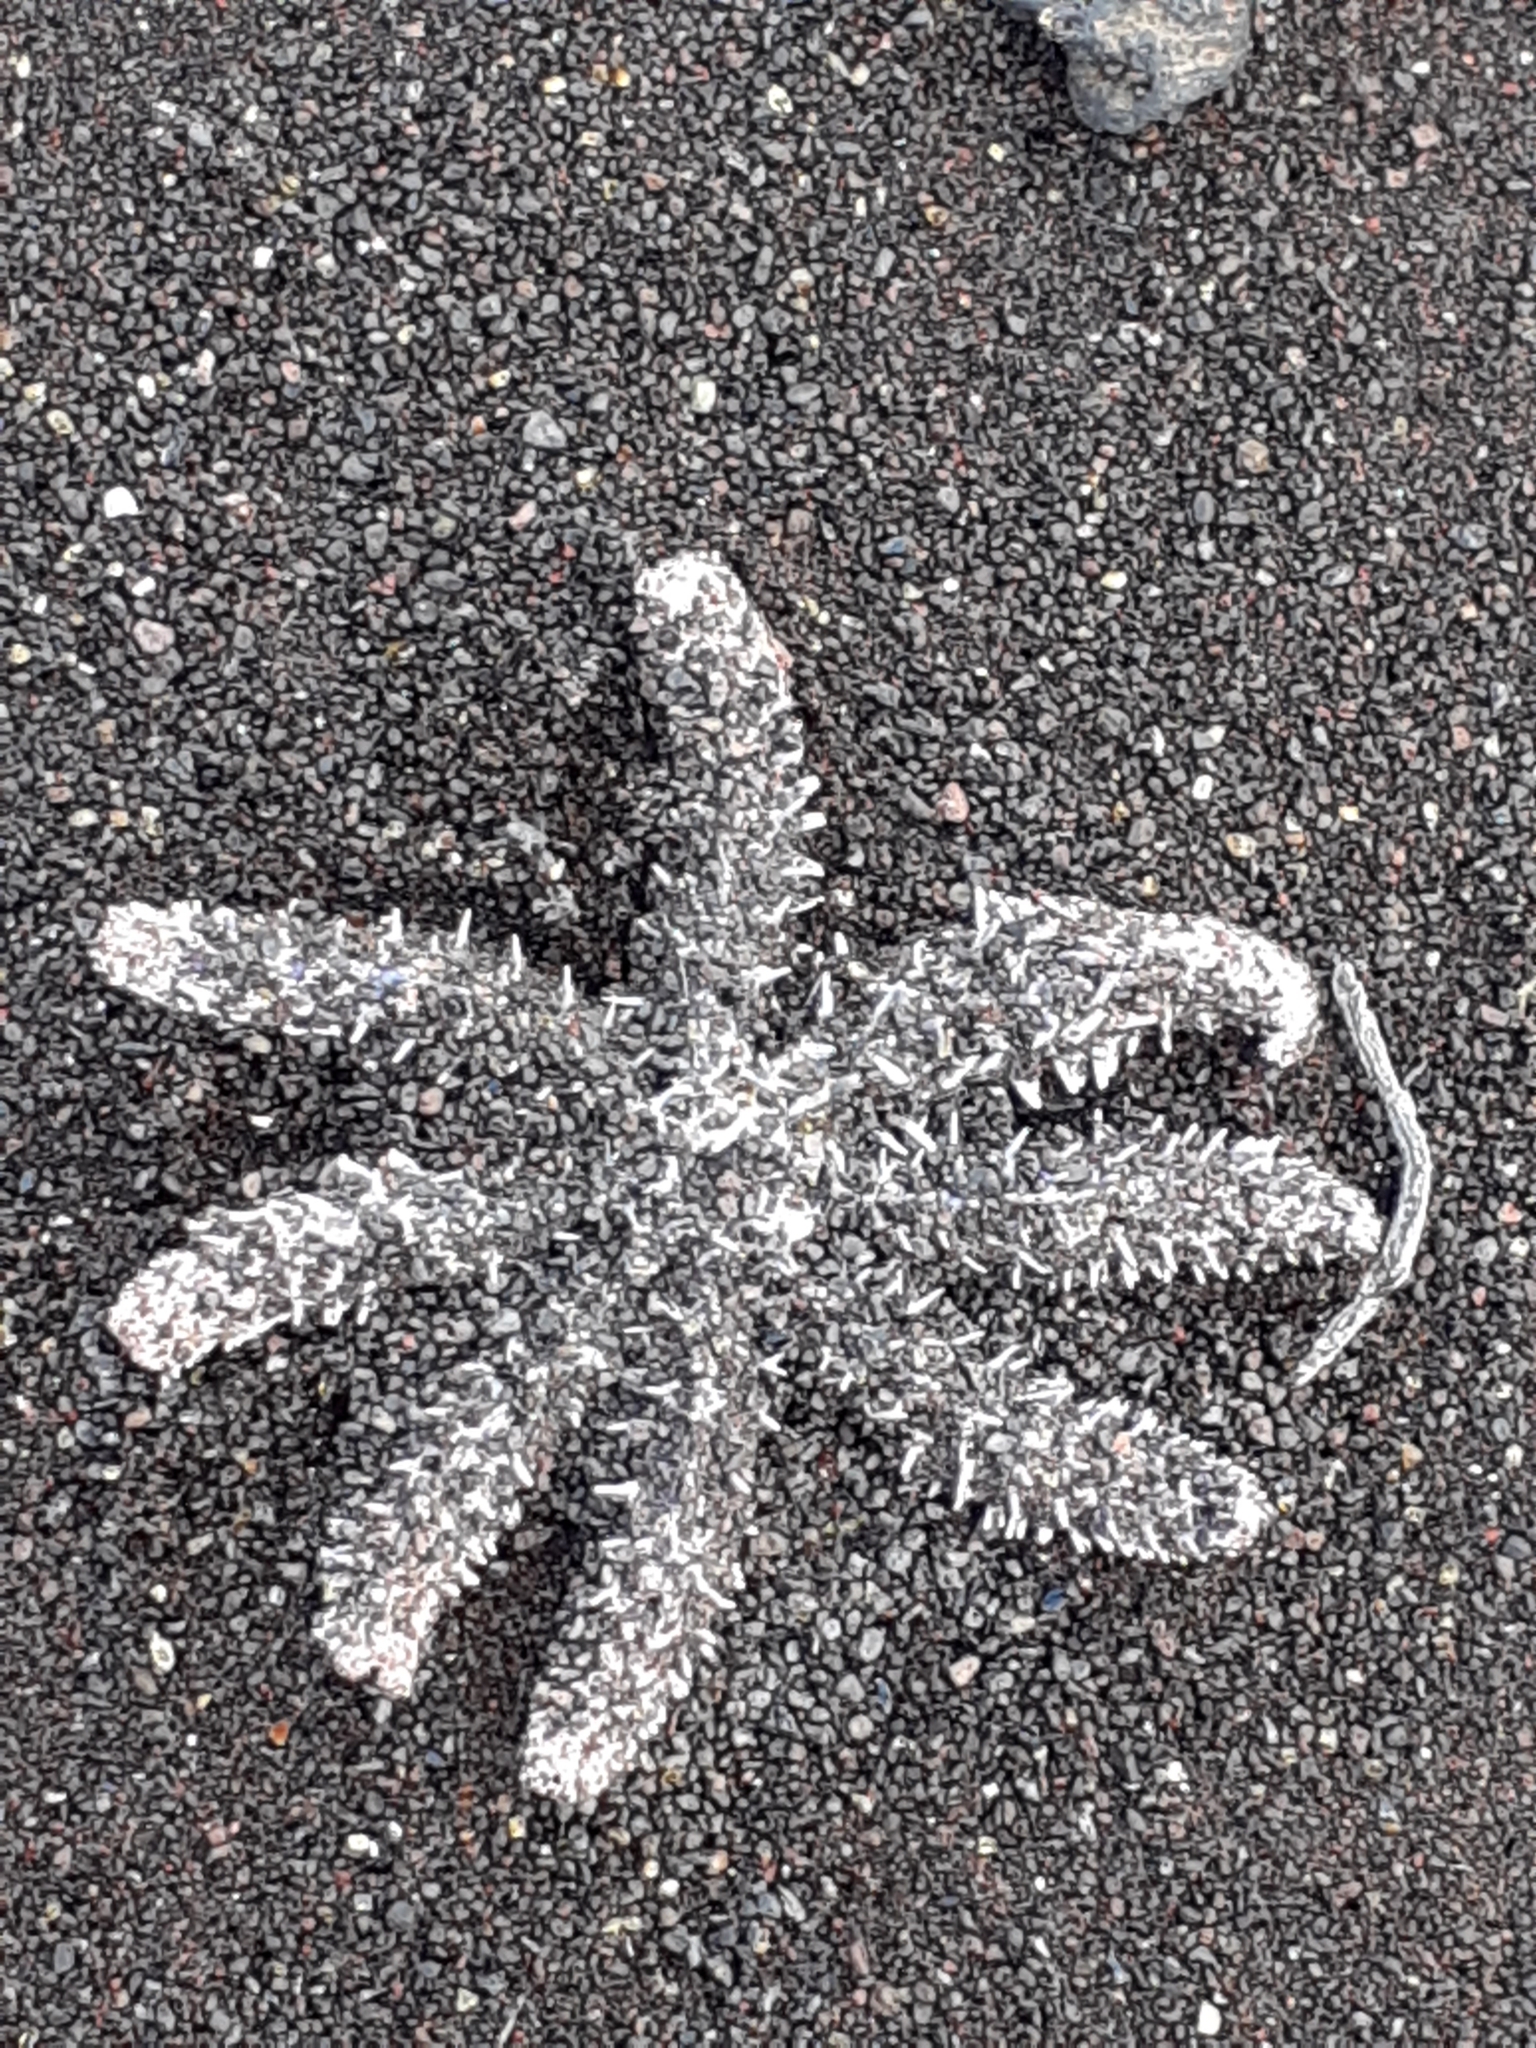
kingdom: Animalia
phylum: Echinodermata
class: Asteroidea
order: Forcipulatida
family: Asteriidae
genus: Coscinasterias
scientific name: Coscinasterias tenuispina
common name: Blue spiny starfish
